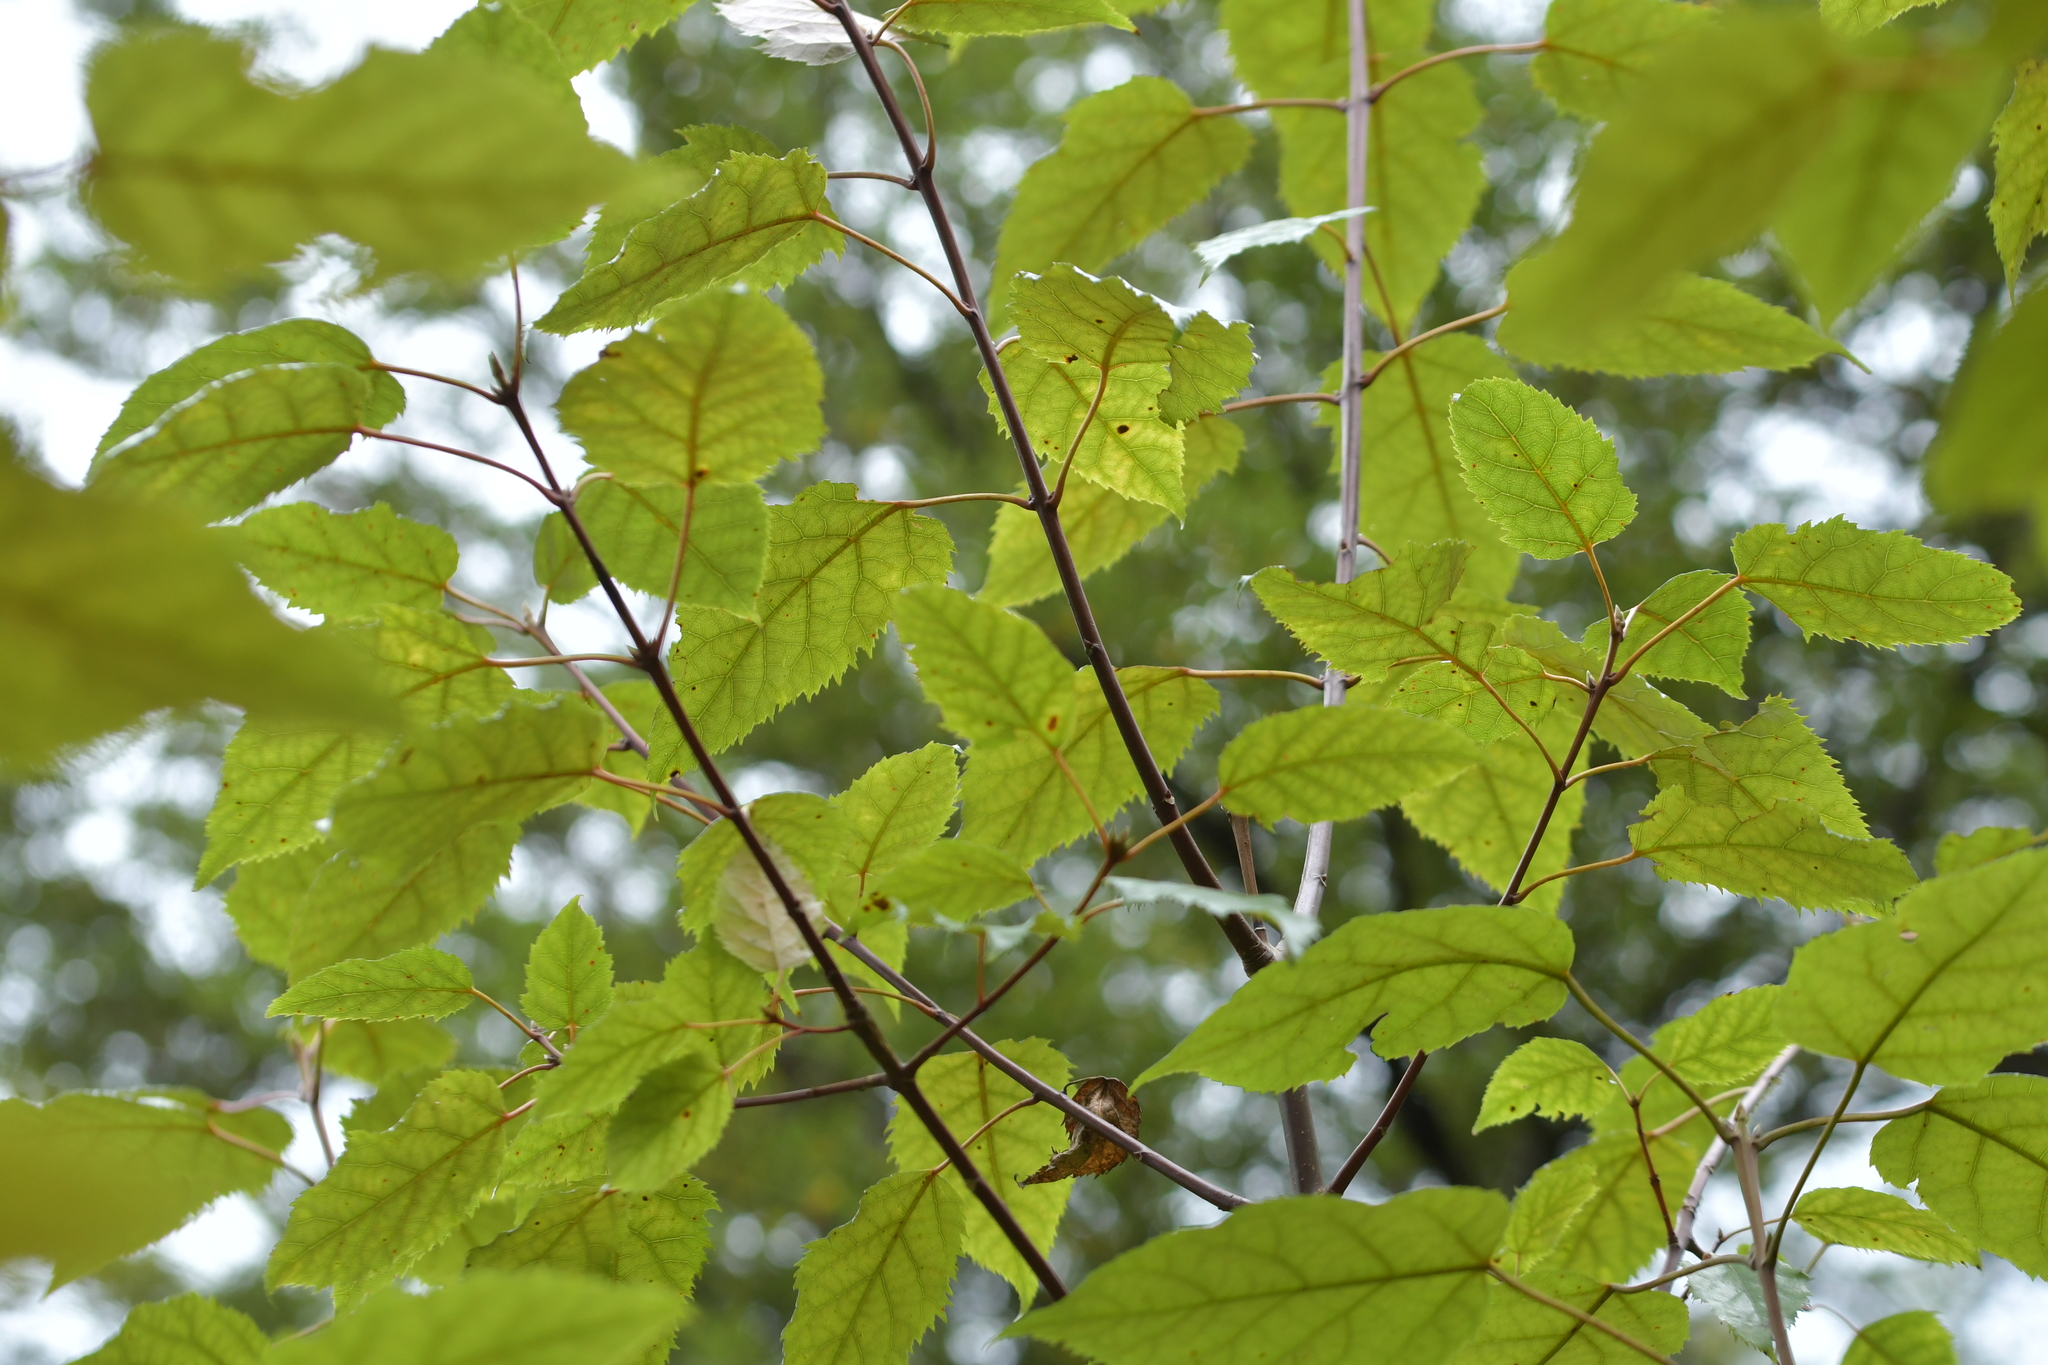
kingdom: Plantae
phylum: Tracheophyta
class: Magnoliopsida
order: Oxalidales
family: Elaeocarpaceae
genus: Aristotelia
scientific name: Aristotelia serrata
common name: New zealand wineberry
